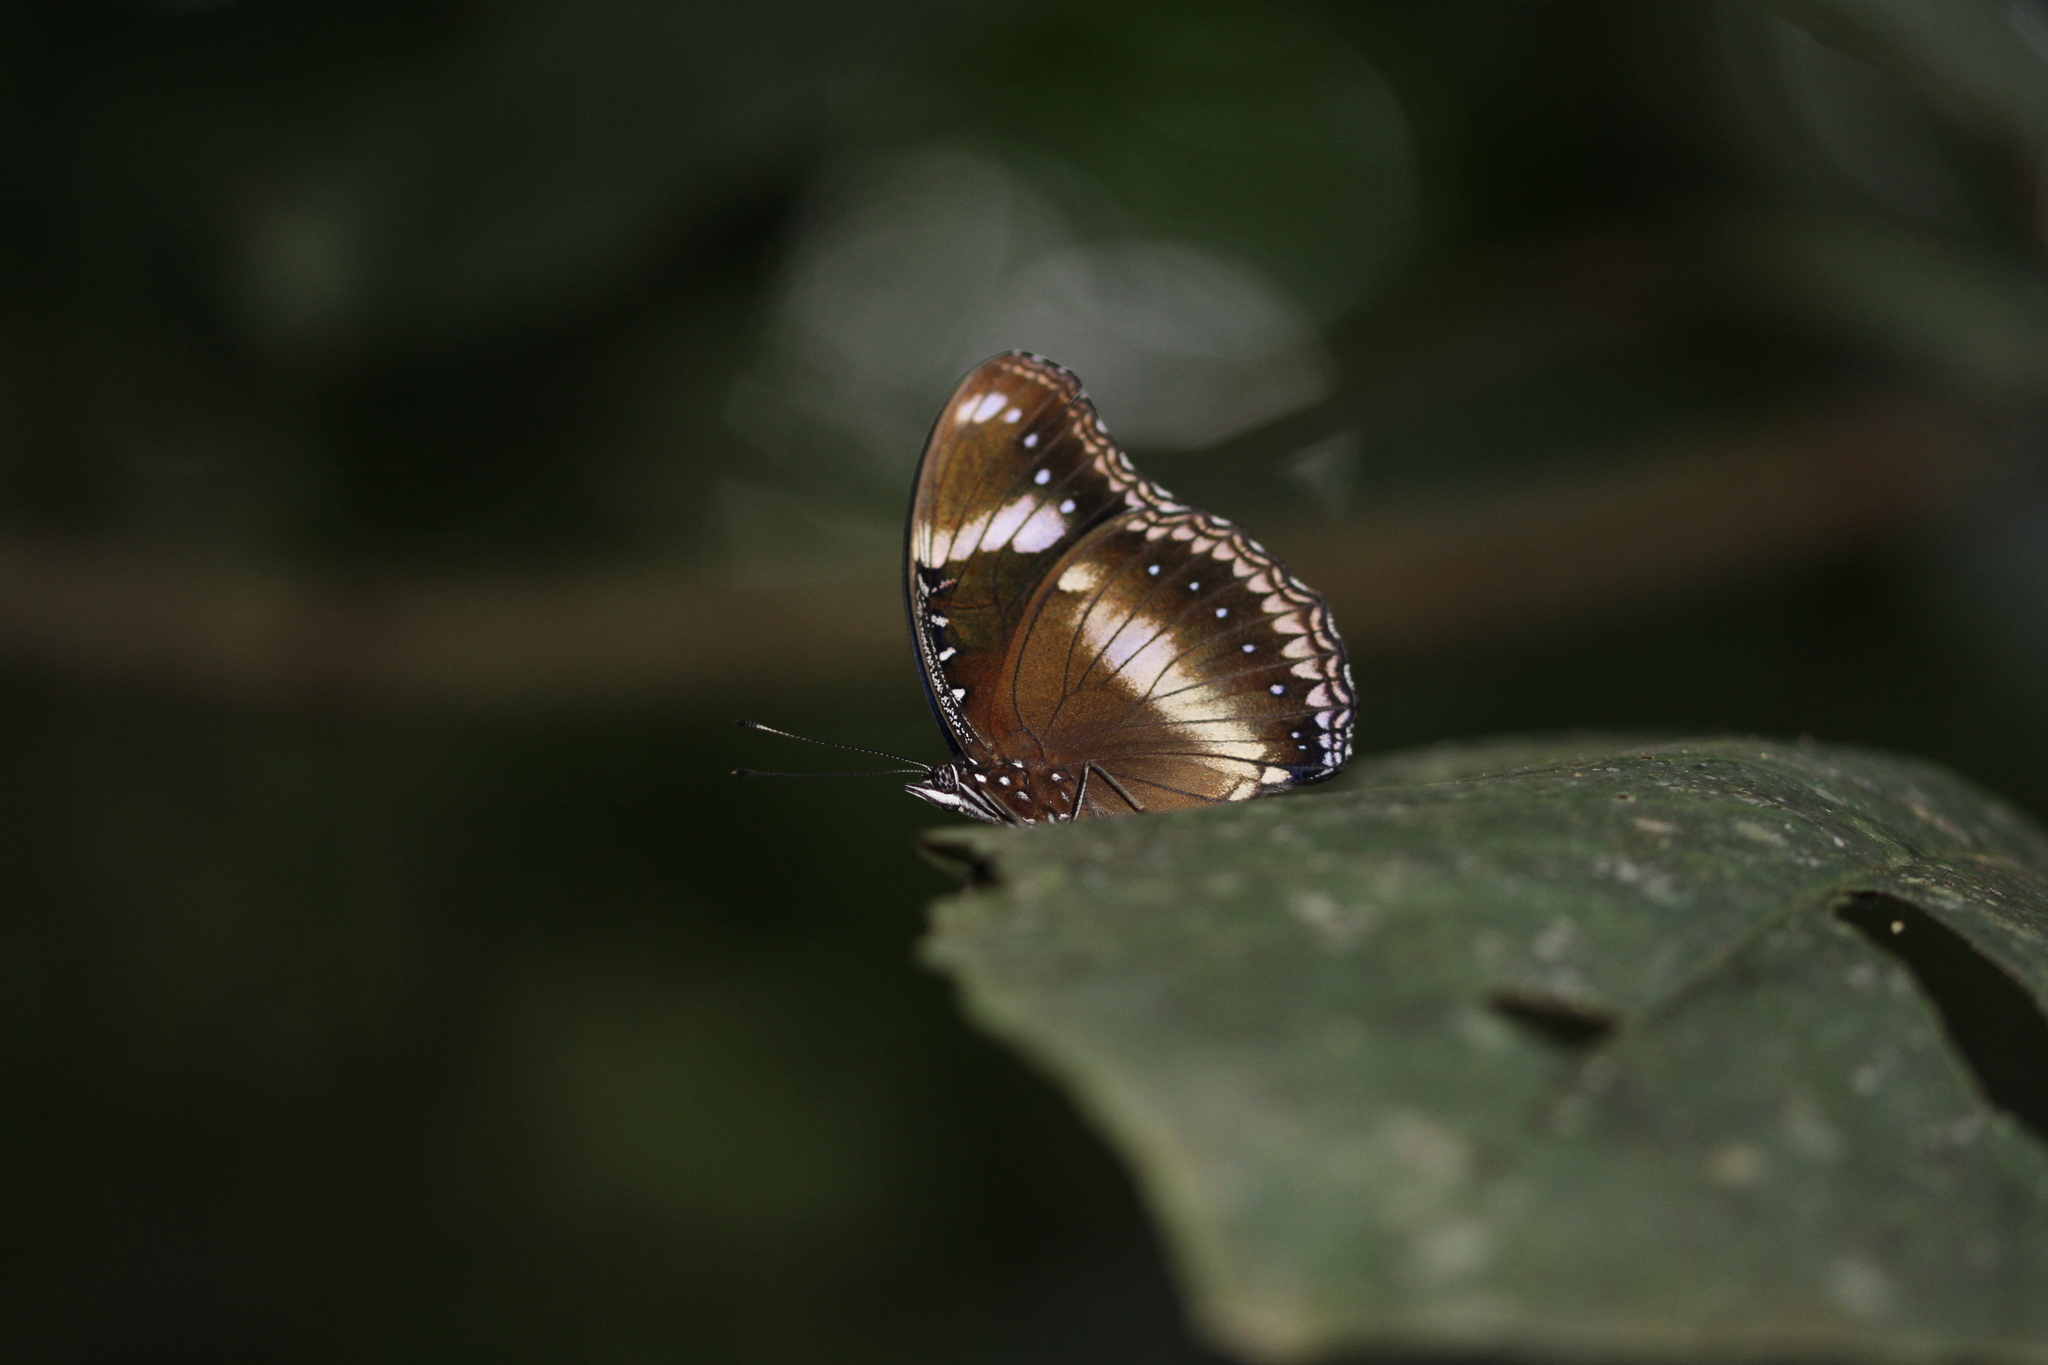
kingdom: Animalia
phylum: Arthropoda
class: Insecta
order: Lepidoptera
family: Nymphalidae
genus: Hypolimnas
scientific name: Hypolimnas bolina
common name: Great eggfly
